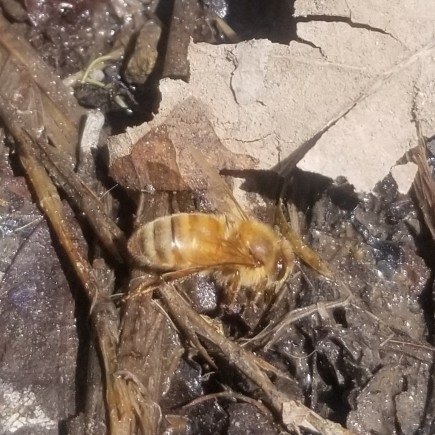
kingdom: Animalia
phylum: Arthropoda
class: Insecta
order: Hymenoptera
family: Apidae
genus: Apis
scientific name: Apis mellifera
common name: Honey bee
